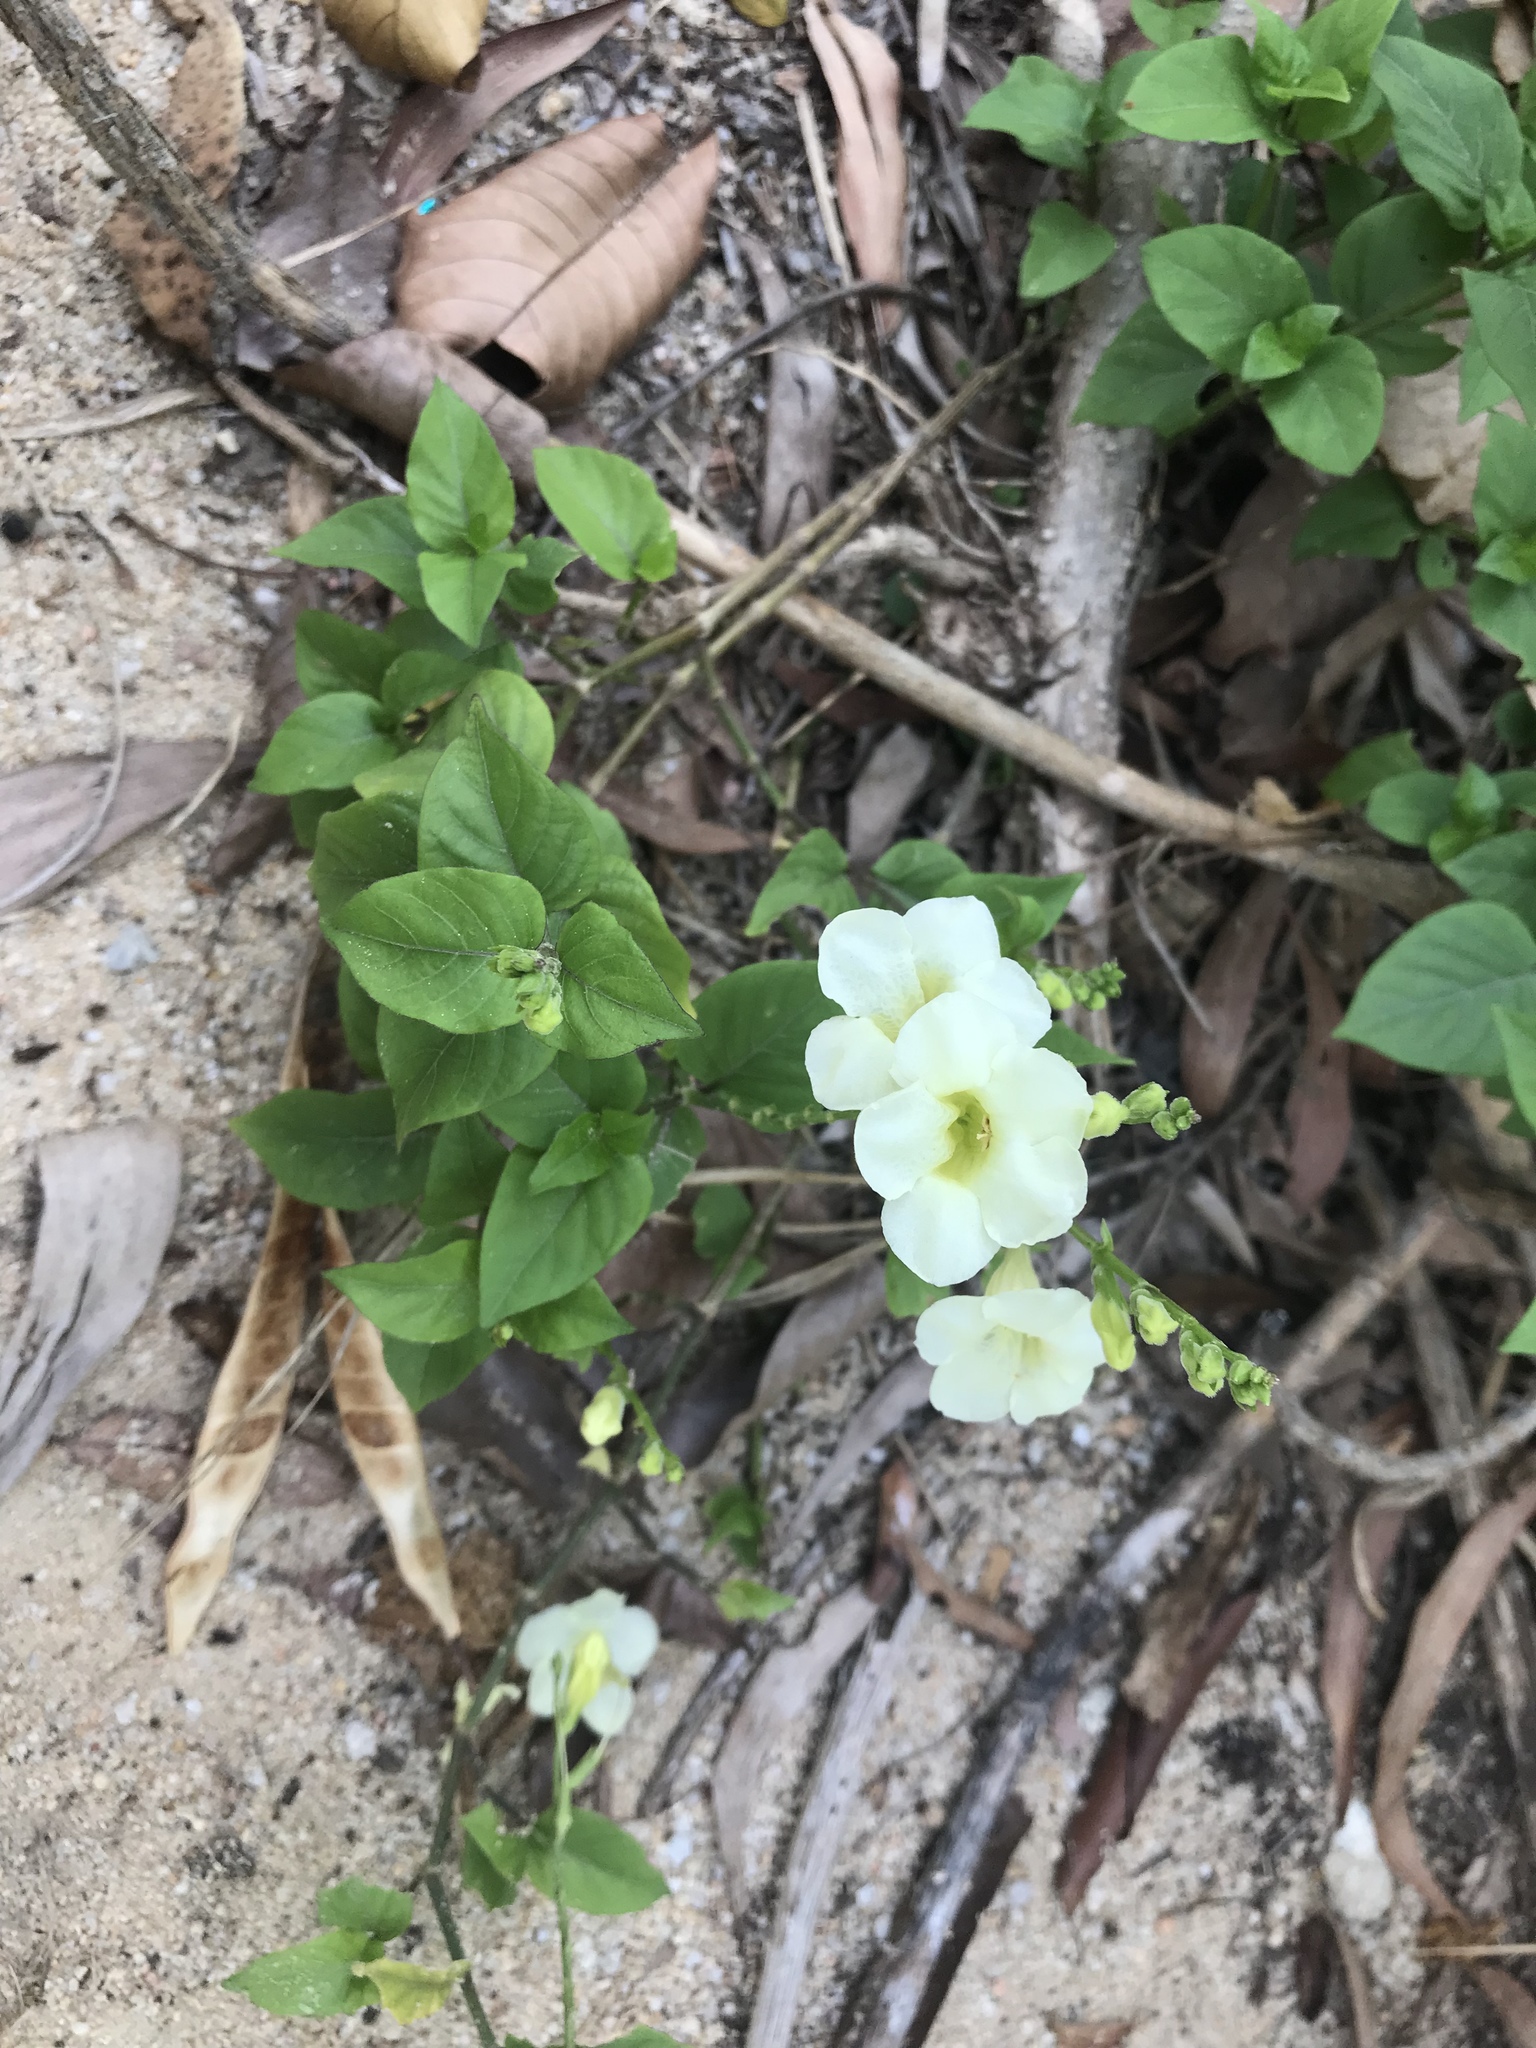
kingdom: Plantae
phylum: Tracheophyta
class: Magnoliopsida
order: Lamiales
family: Acanthaceae
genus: Asystasia
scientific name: Asystasia gangetica
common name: Chinese violet
